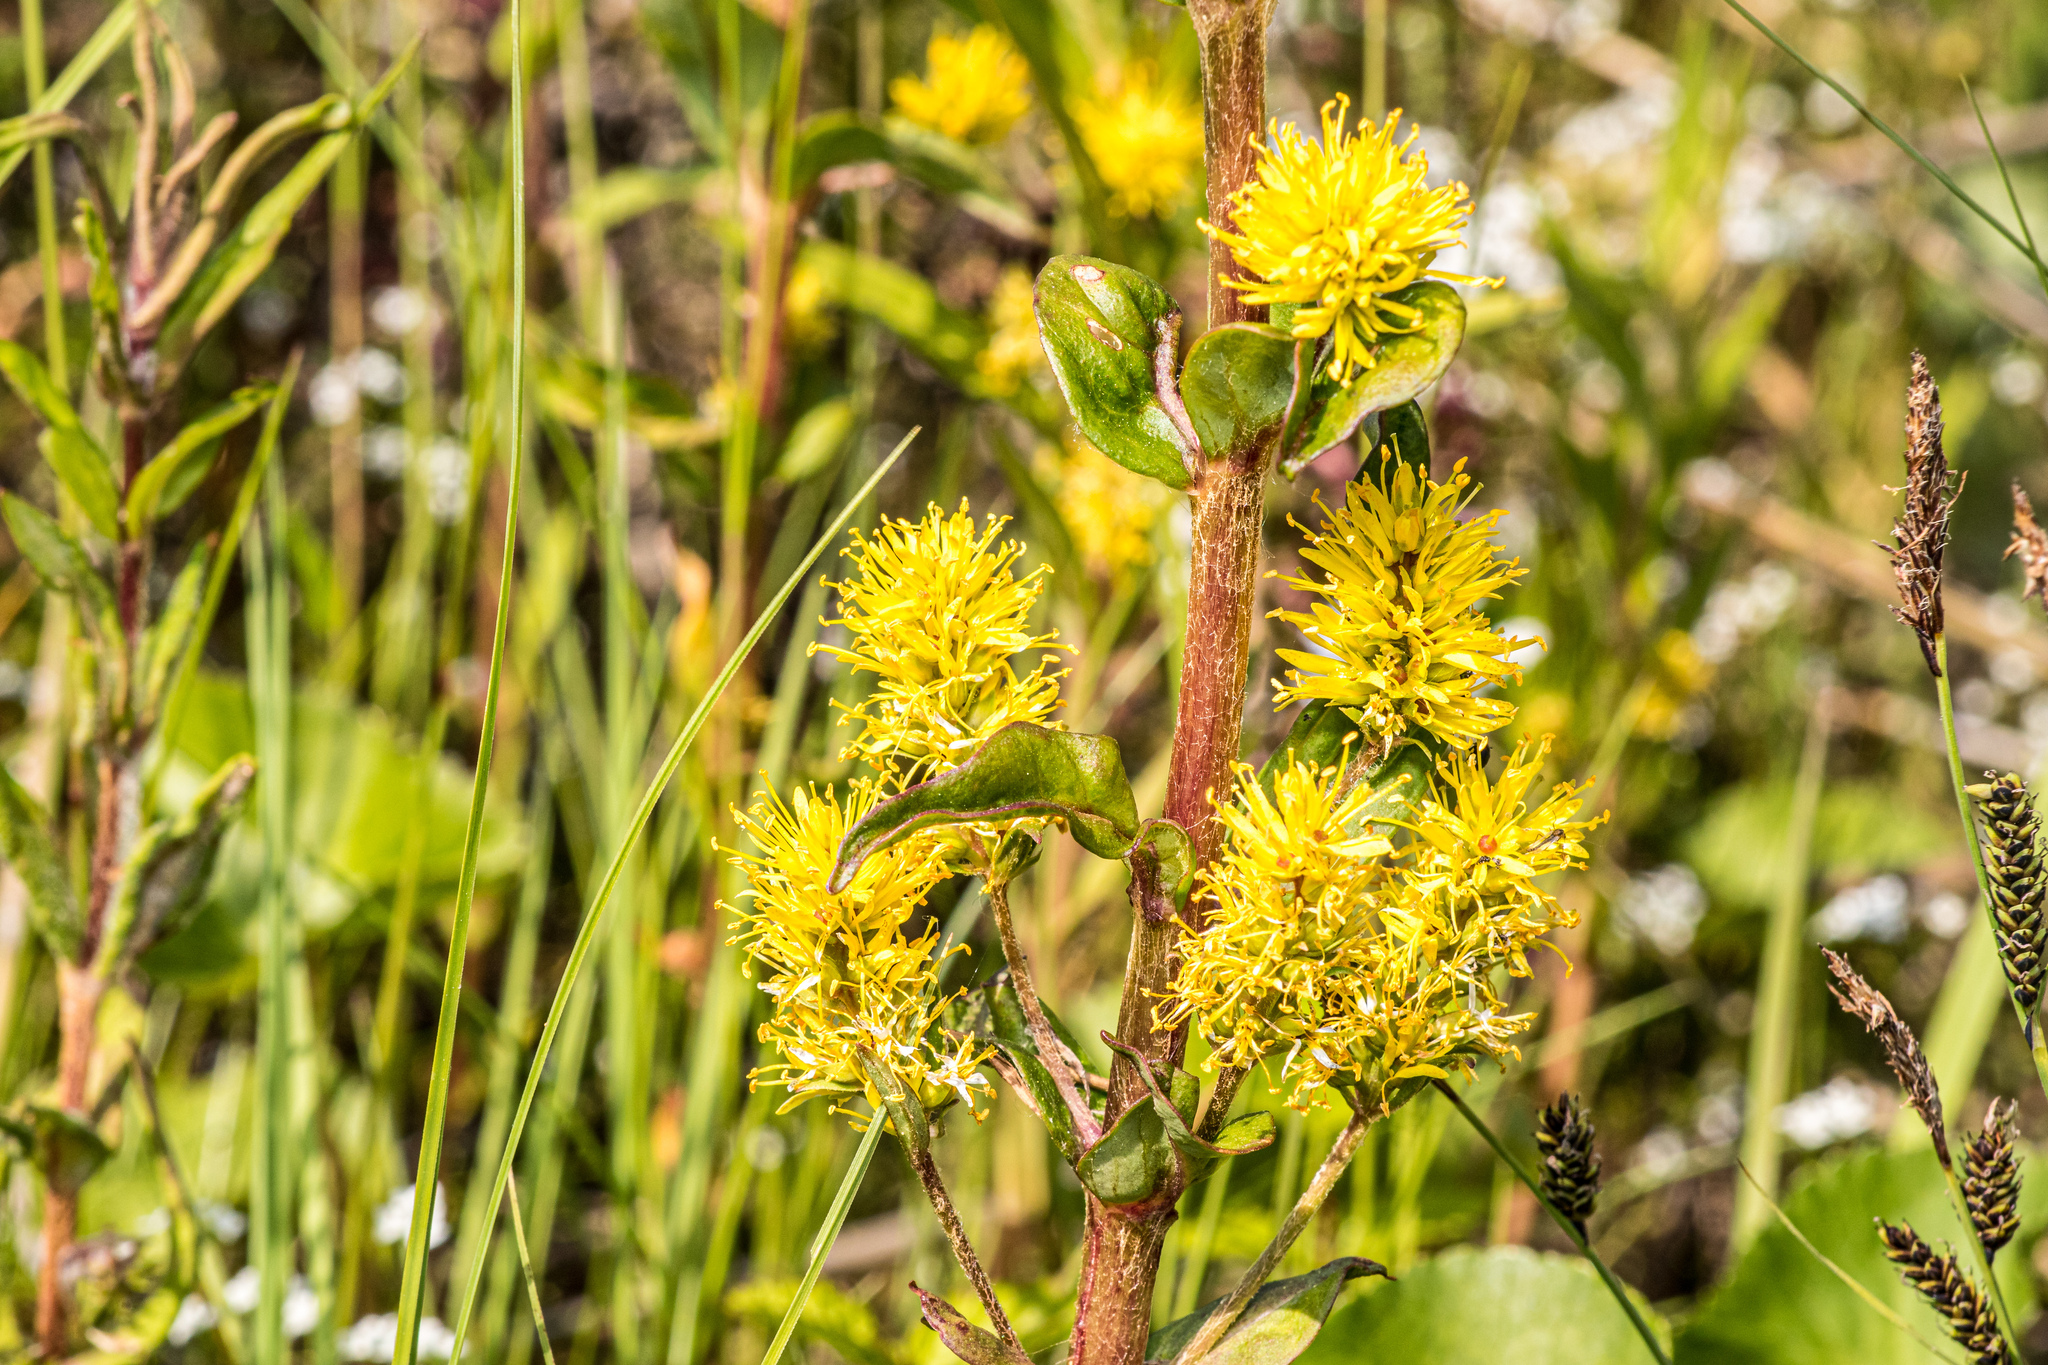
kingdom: Plantae
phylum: Tracheophyta
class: Magnoliopsida
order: Ericales
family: Primulaceae
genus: Lysimachia
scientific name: Lysimachia thyrsiflora
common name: Tufted loosestrife
